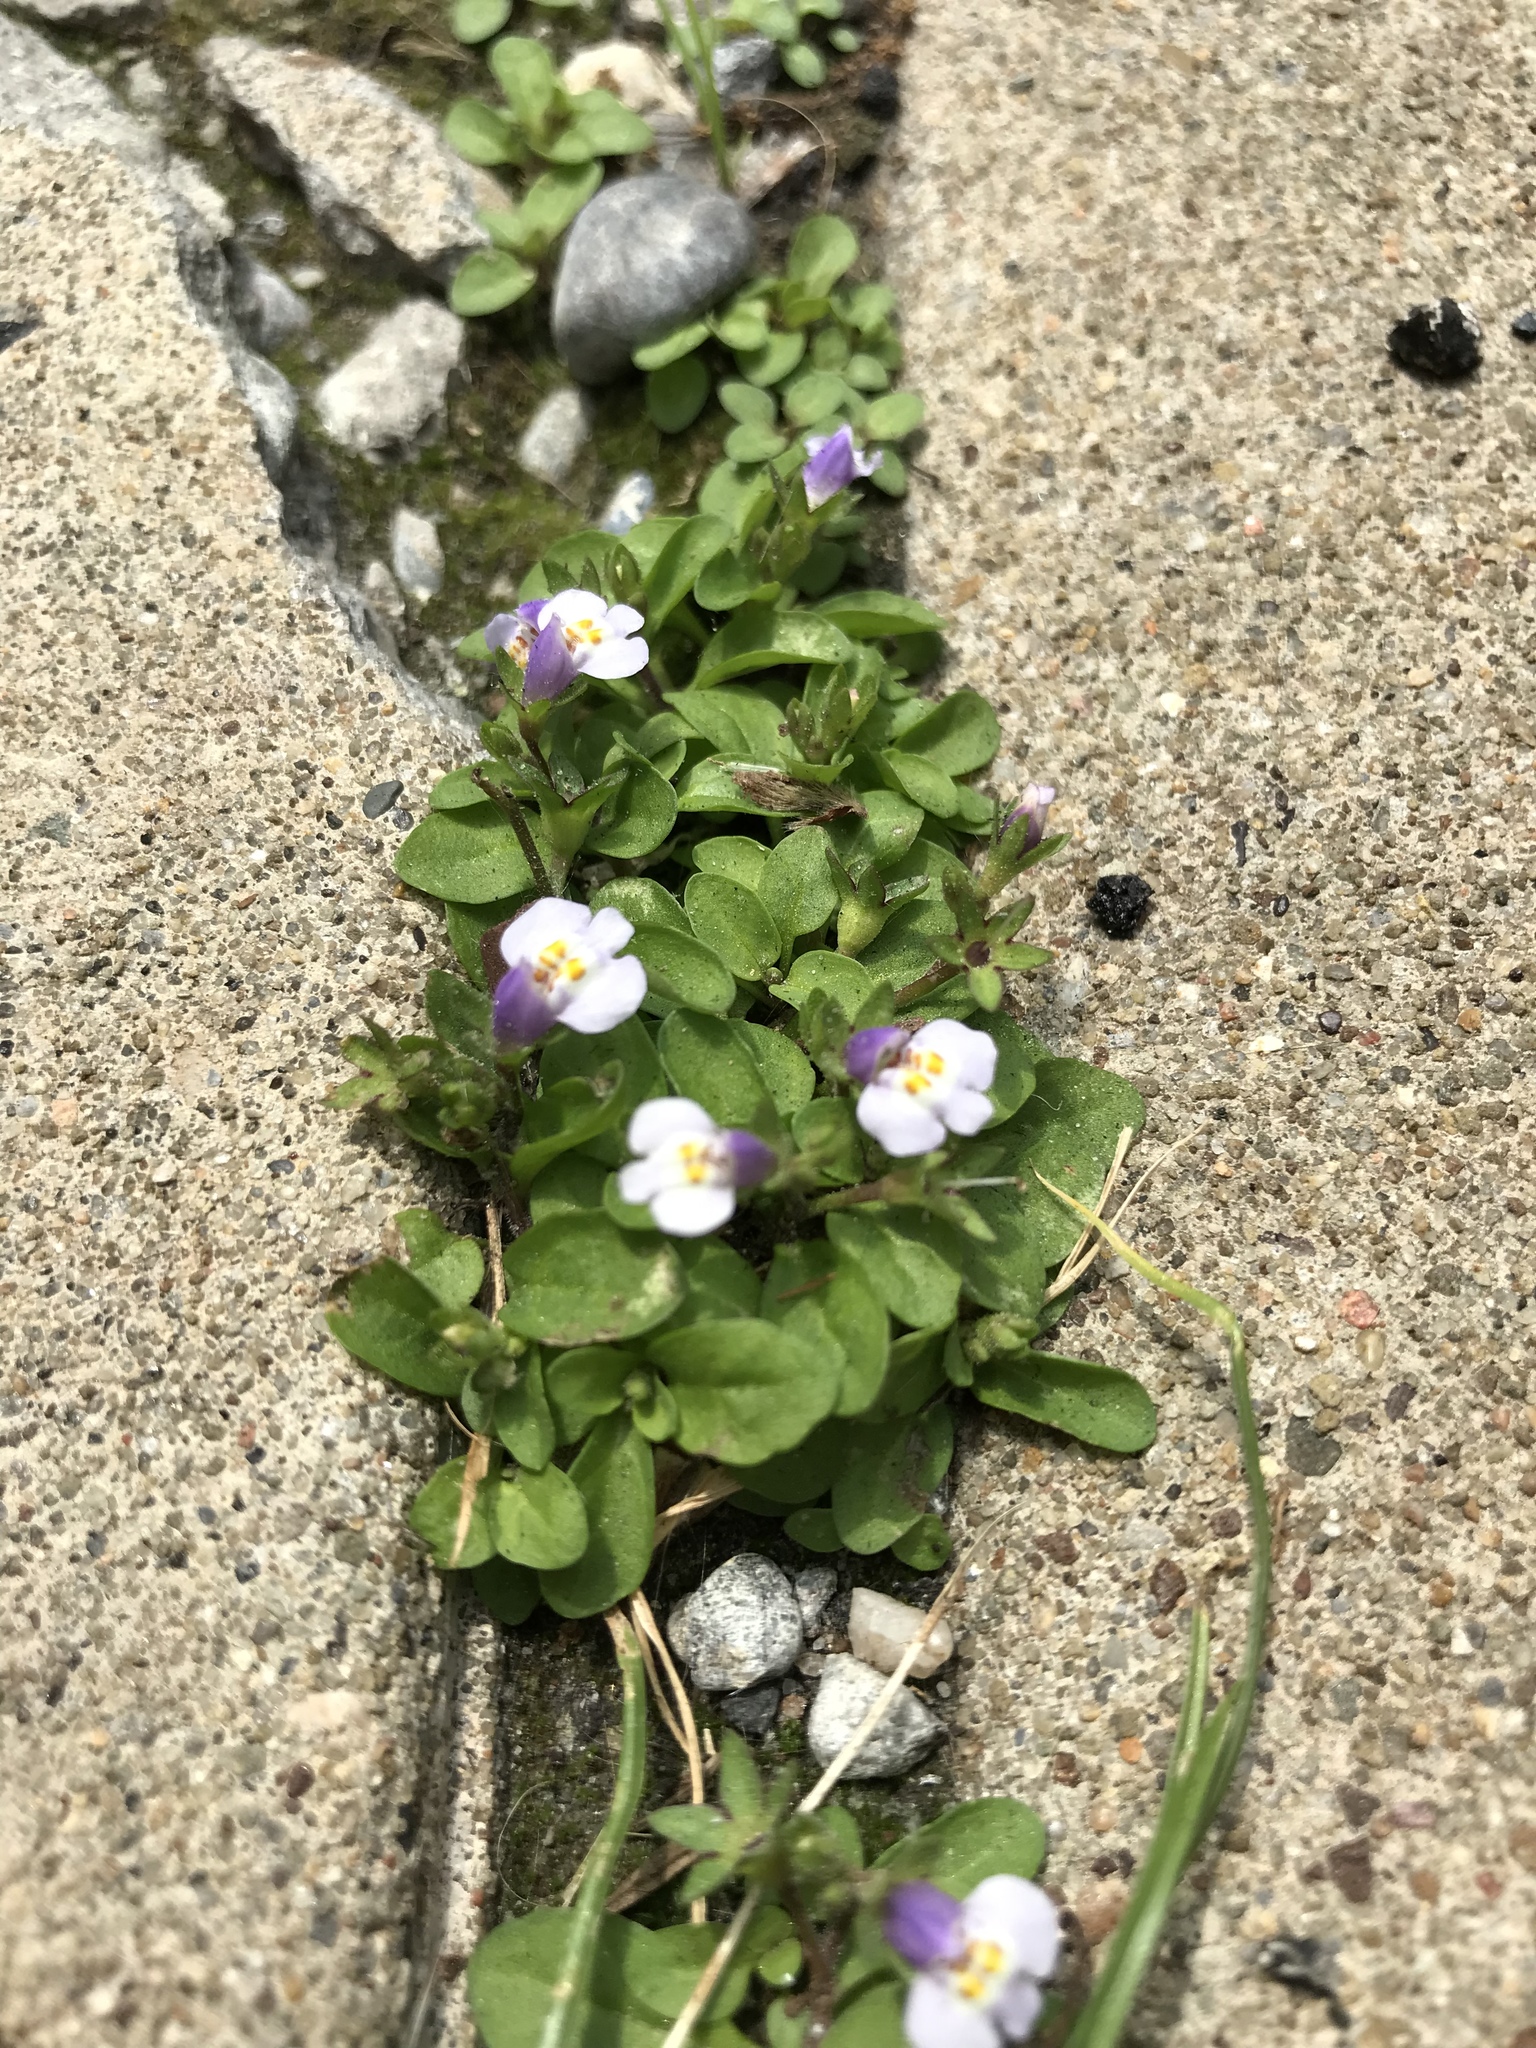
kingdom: Plantae
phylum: Tracheophyta
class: Magnoliopsida
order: Lamiales
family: Mazaceae
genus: Mazus
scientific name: Mazus pumilus
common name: Japanese mazus
